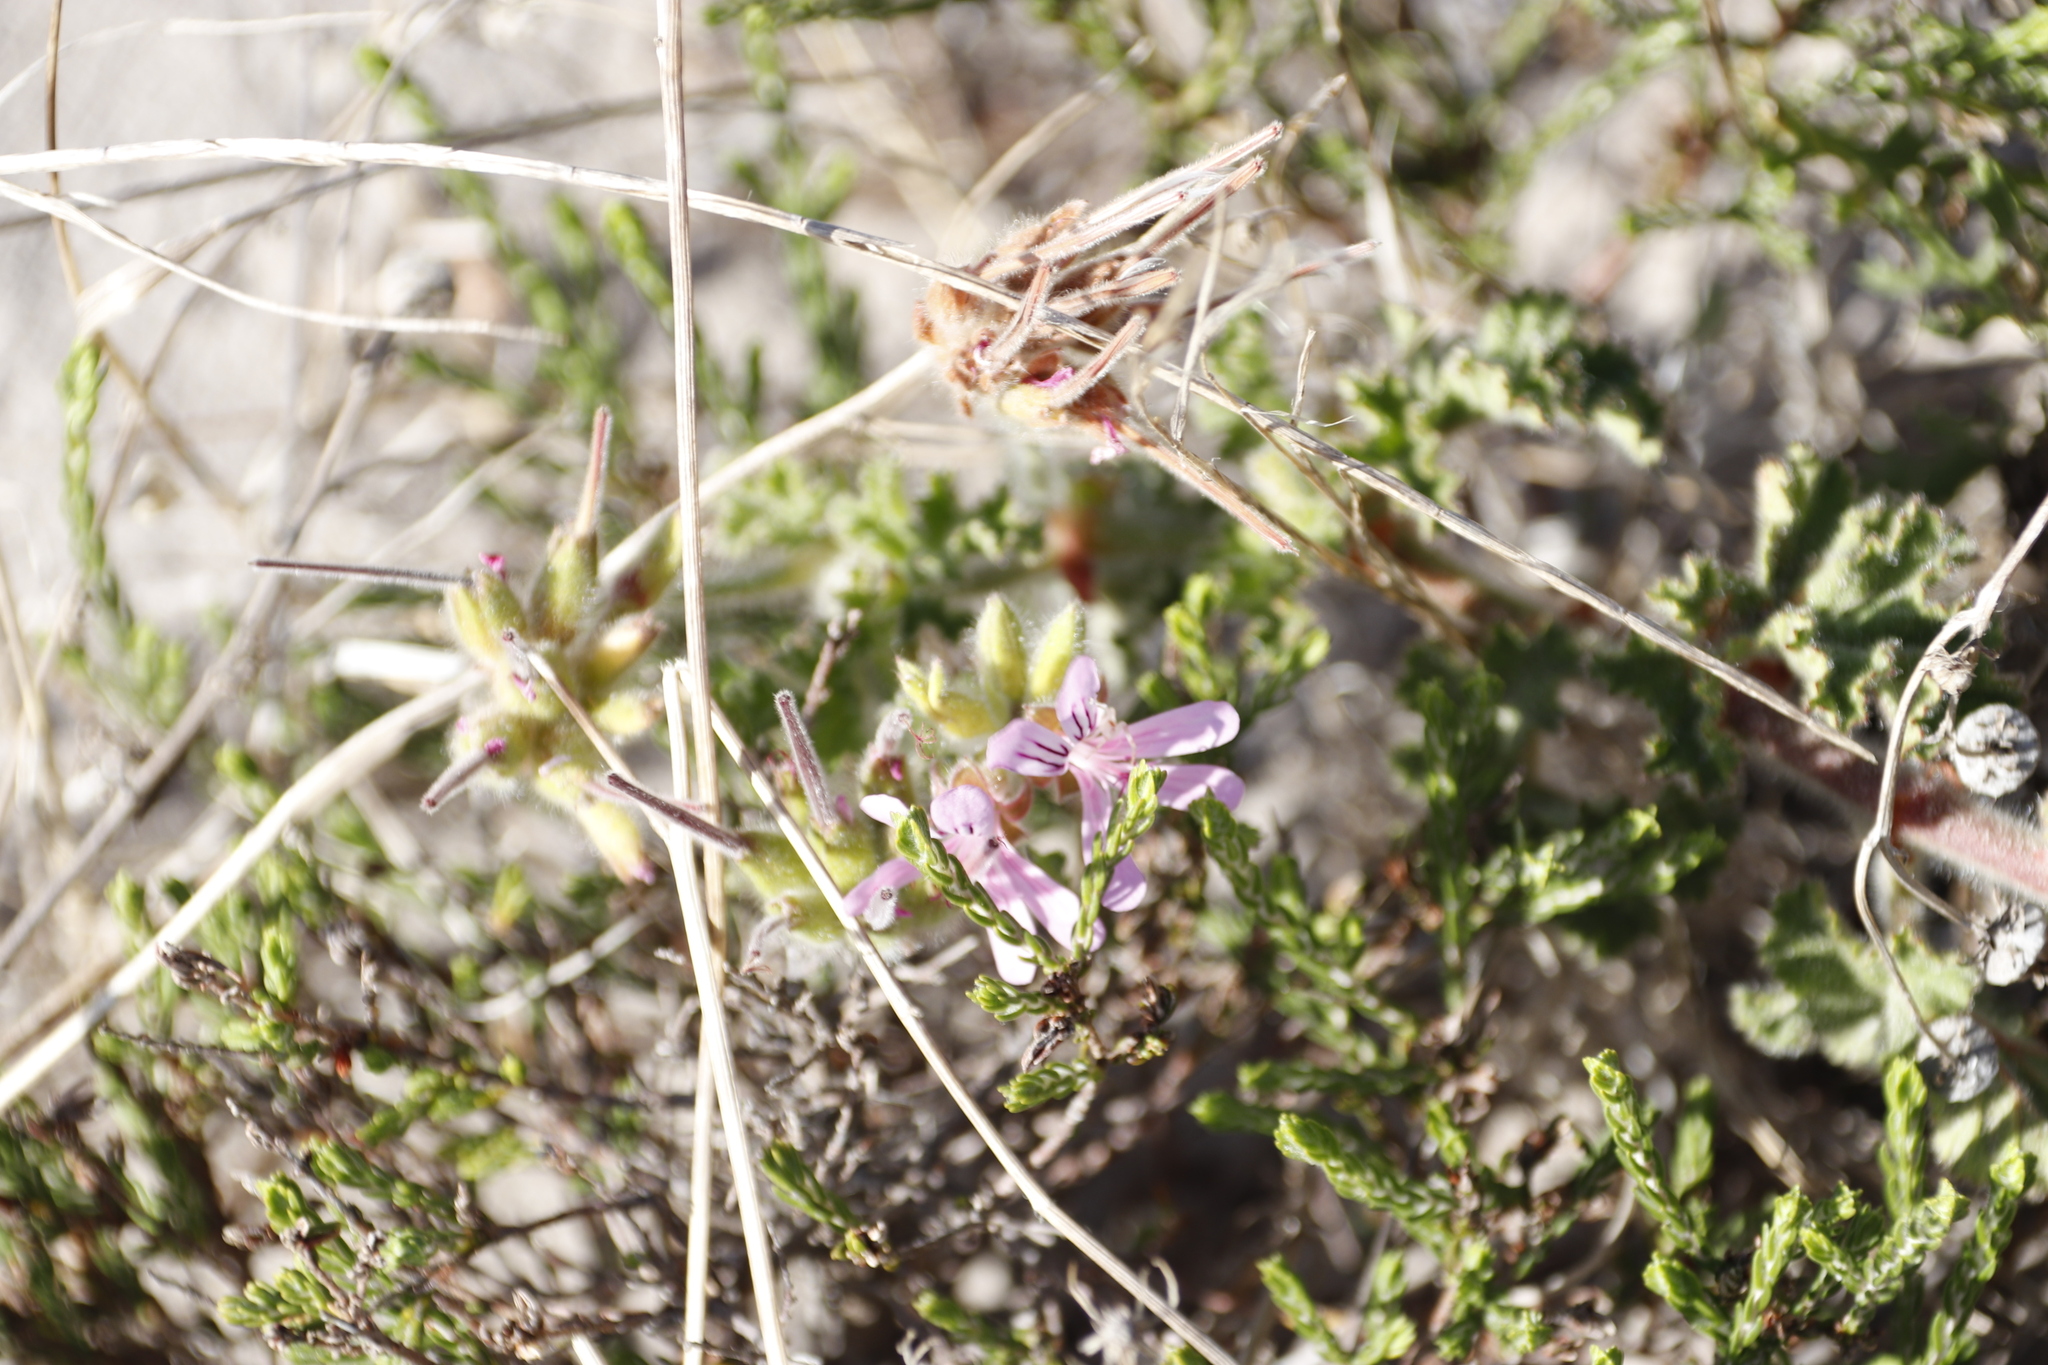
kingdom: Plantae
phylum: Tracheophyta
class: Magnoliopsida
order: Geraniales
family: Geraniaceae
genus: Pelargonium
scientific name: Pelargonium capitatum
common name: Rose scented geranium
